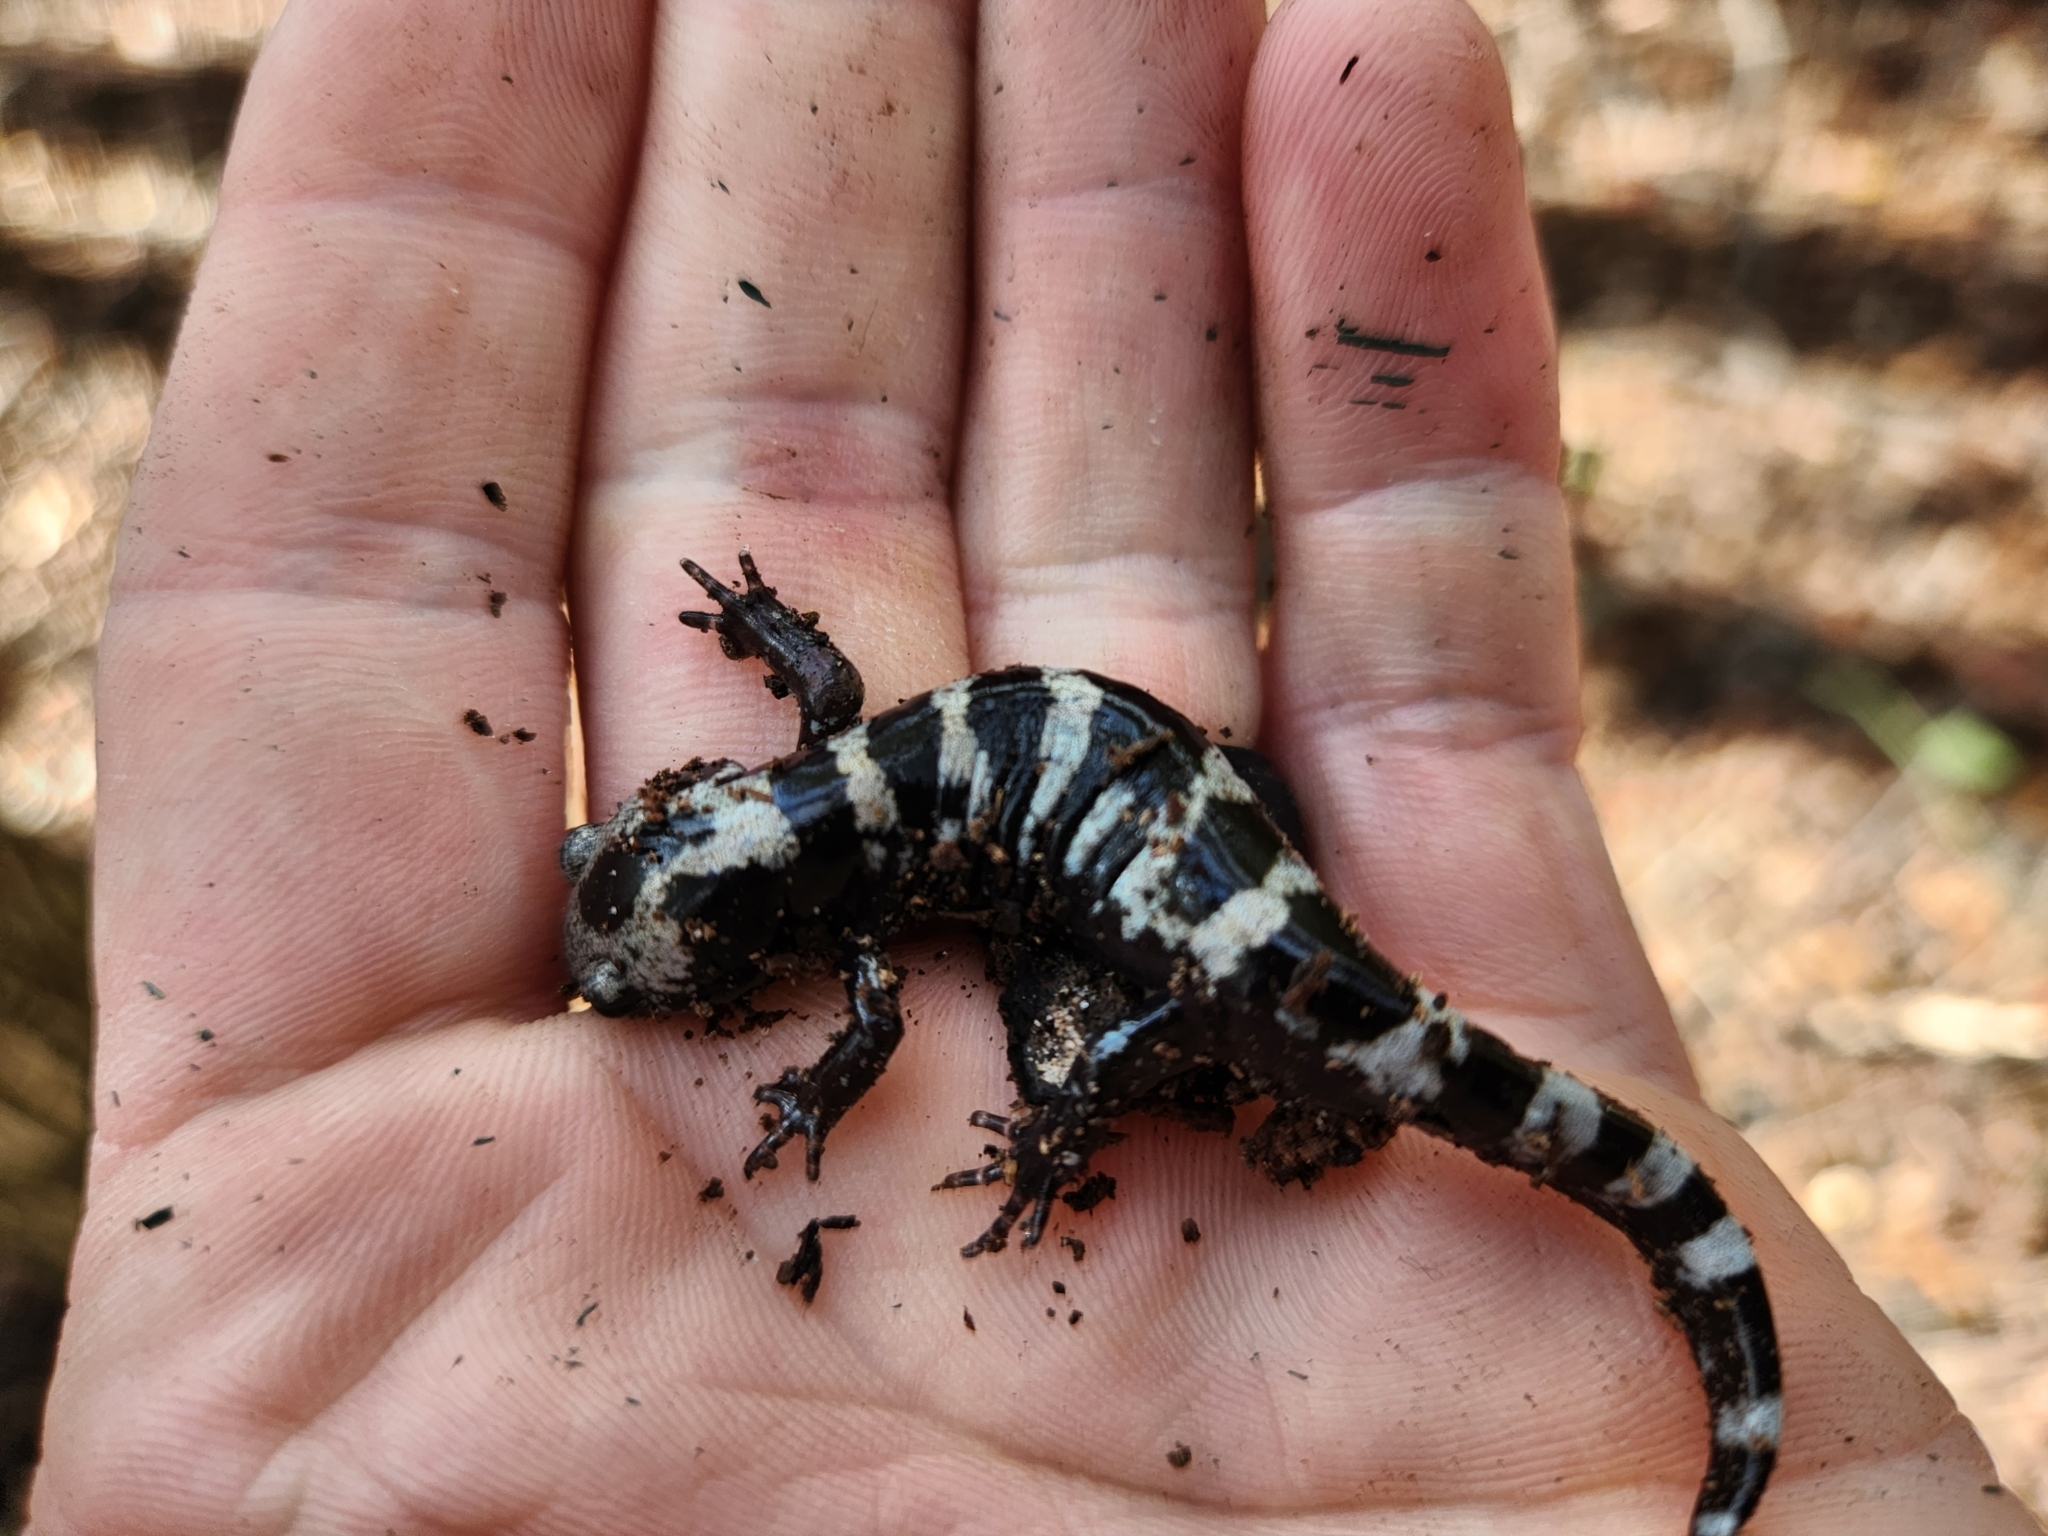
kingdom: Animalia
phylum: Chordata
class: Amphibia
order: Caudata
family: Ambystomatidae
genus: Ambystoma
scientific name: Ambystoma opacum
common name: Marbled salamander
